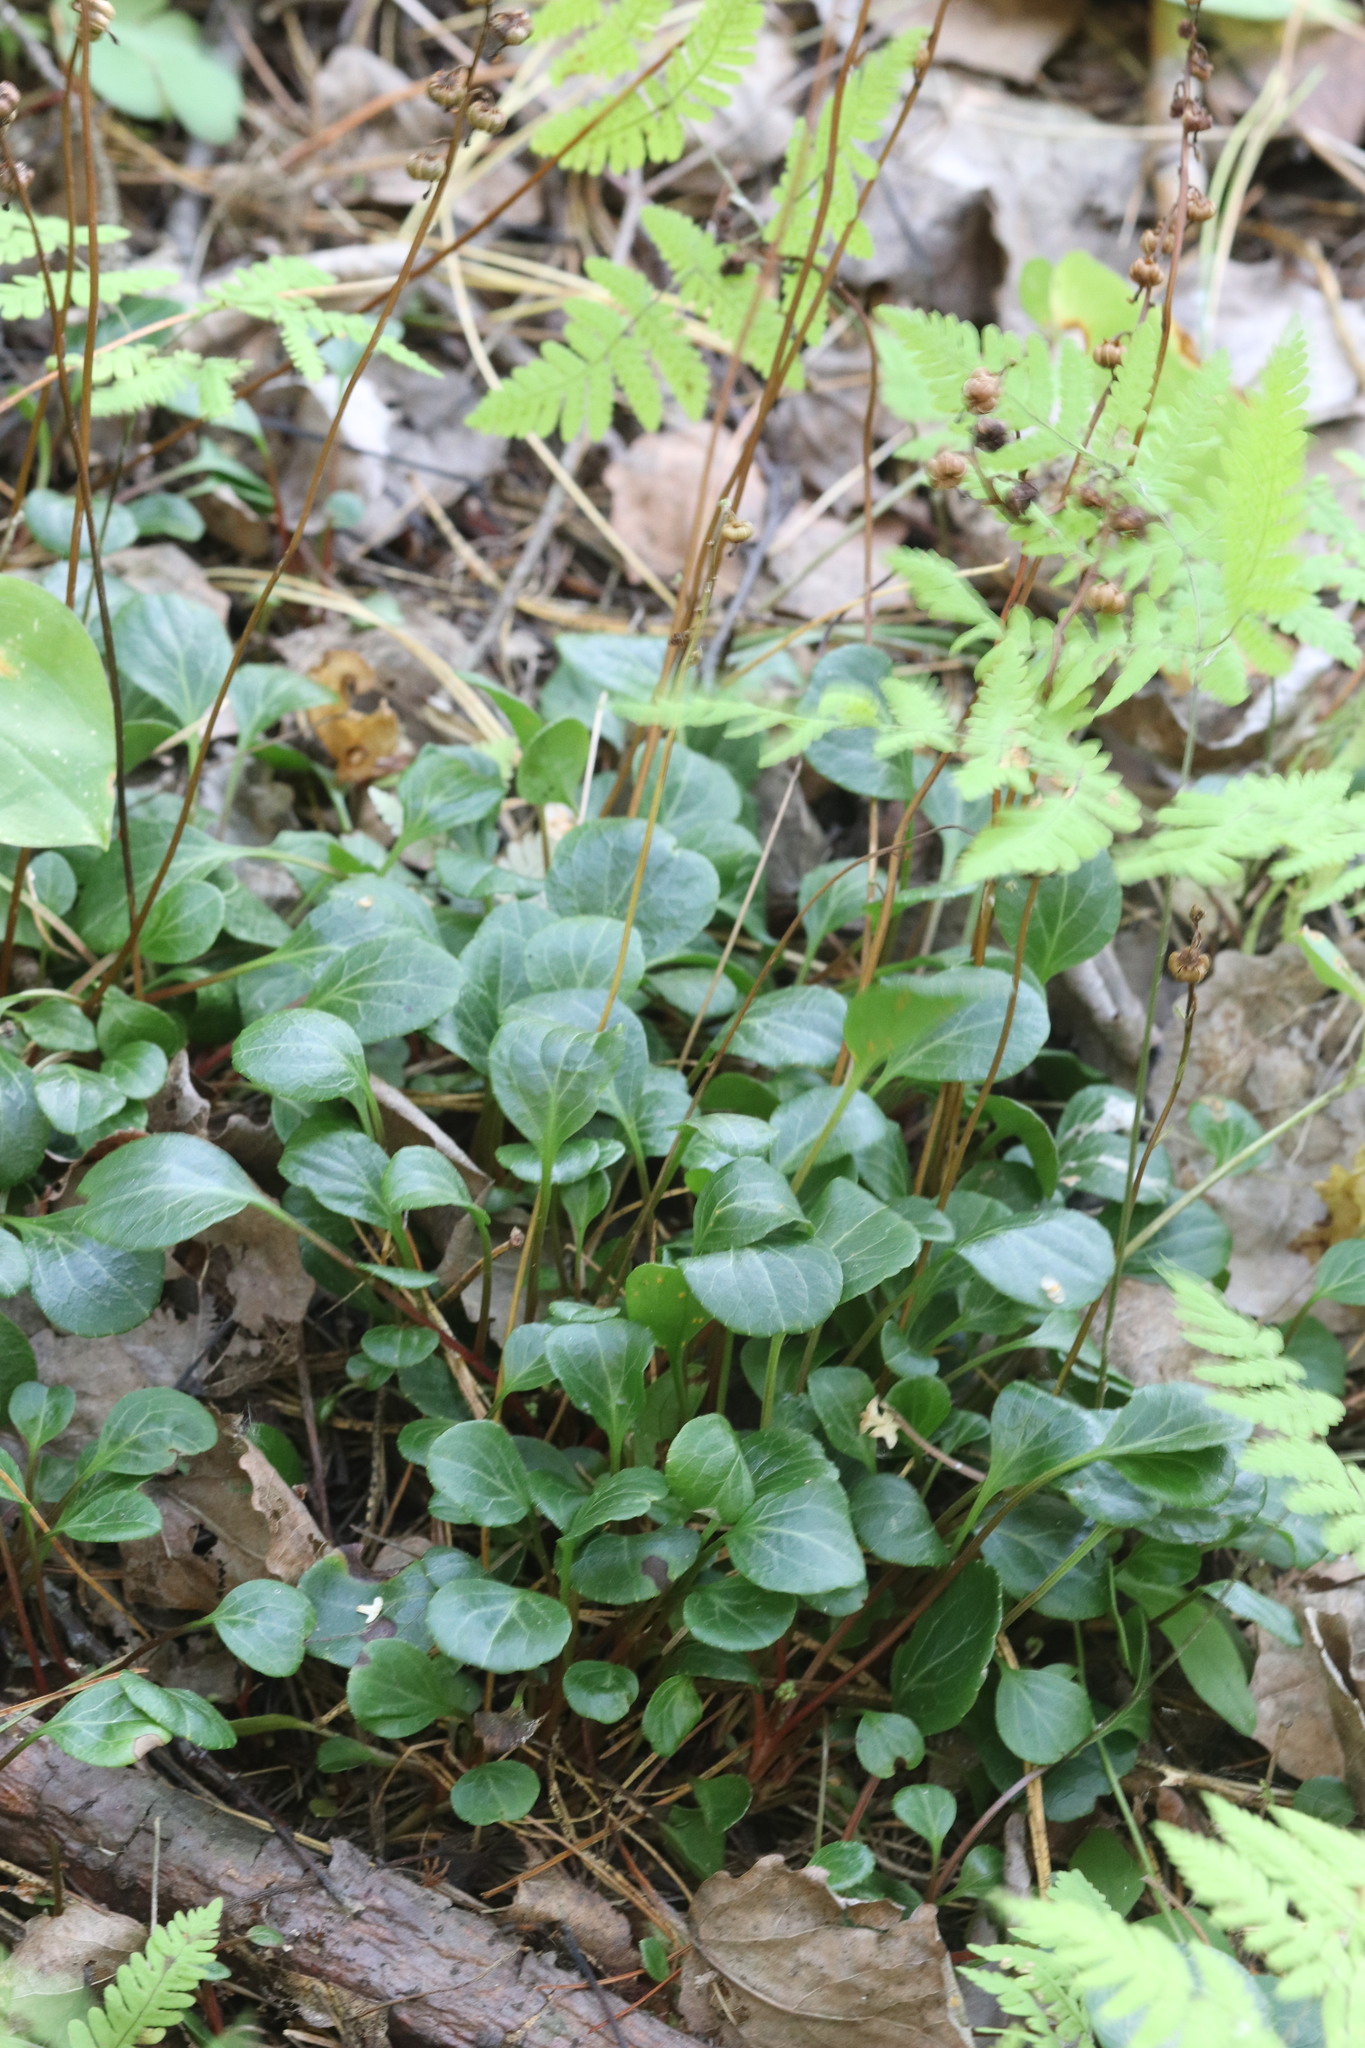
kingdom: Plantae
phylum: Tracheophyta
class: Magnoliopsida
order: Ericales
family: Ericaceae
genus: Pyrola
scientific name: Pyrola chlorantha
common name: Green wintergreen
